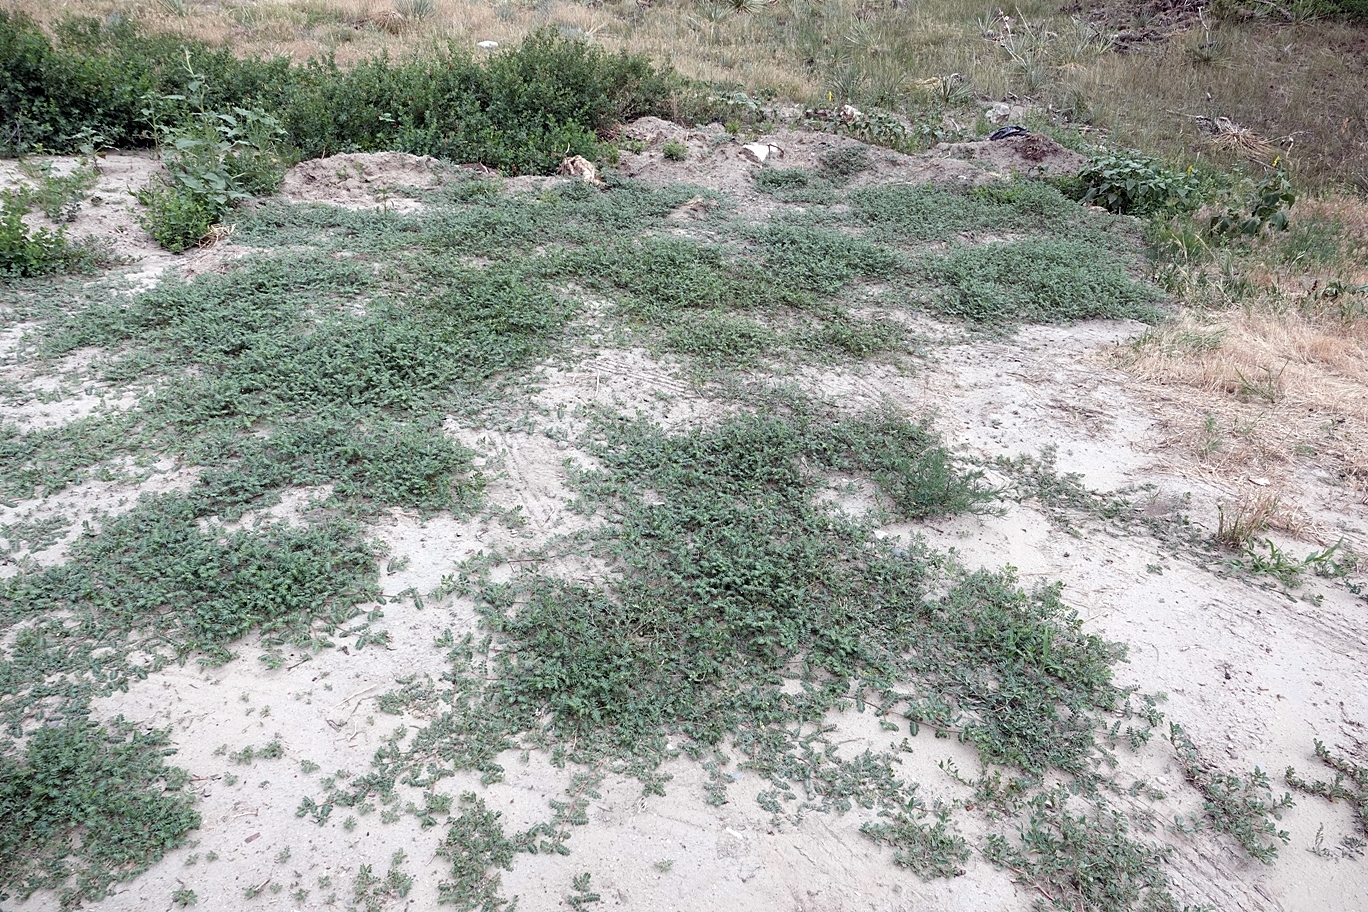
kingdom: Plantae
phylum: Tracheophyta
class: Magnoliopsida
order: Zygophyllales
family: Zygophyllaceae
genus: Tribulus
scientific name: Tribulus terrestris
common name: Puncturevine
